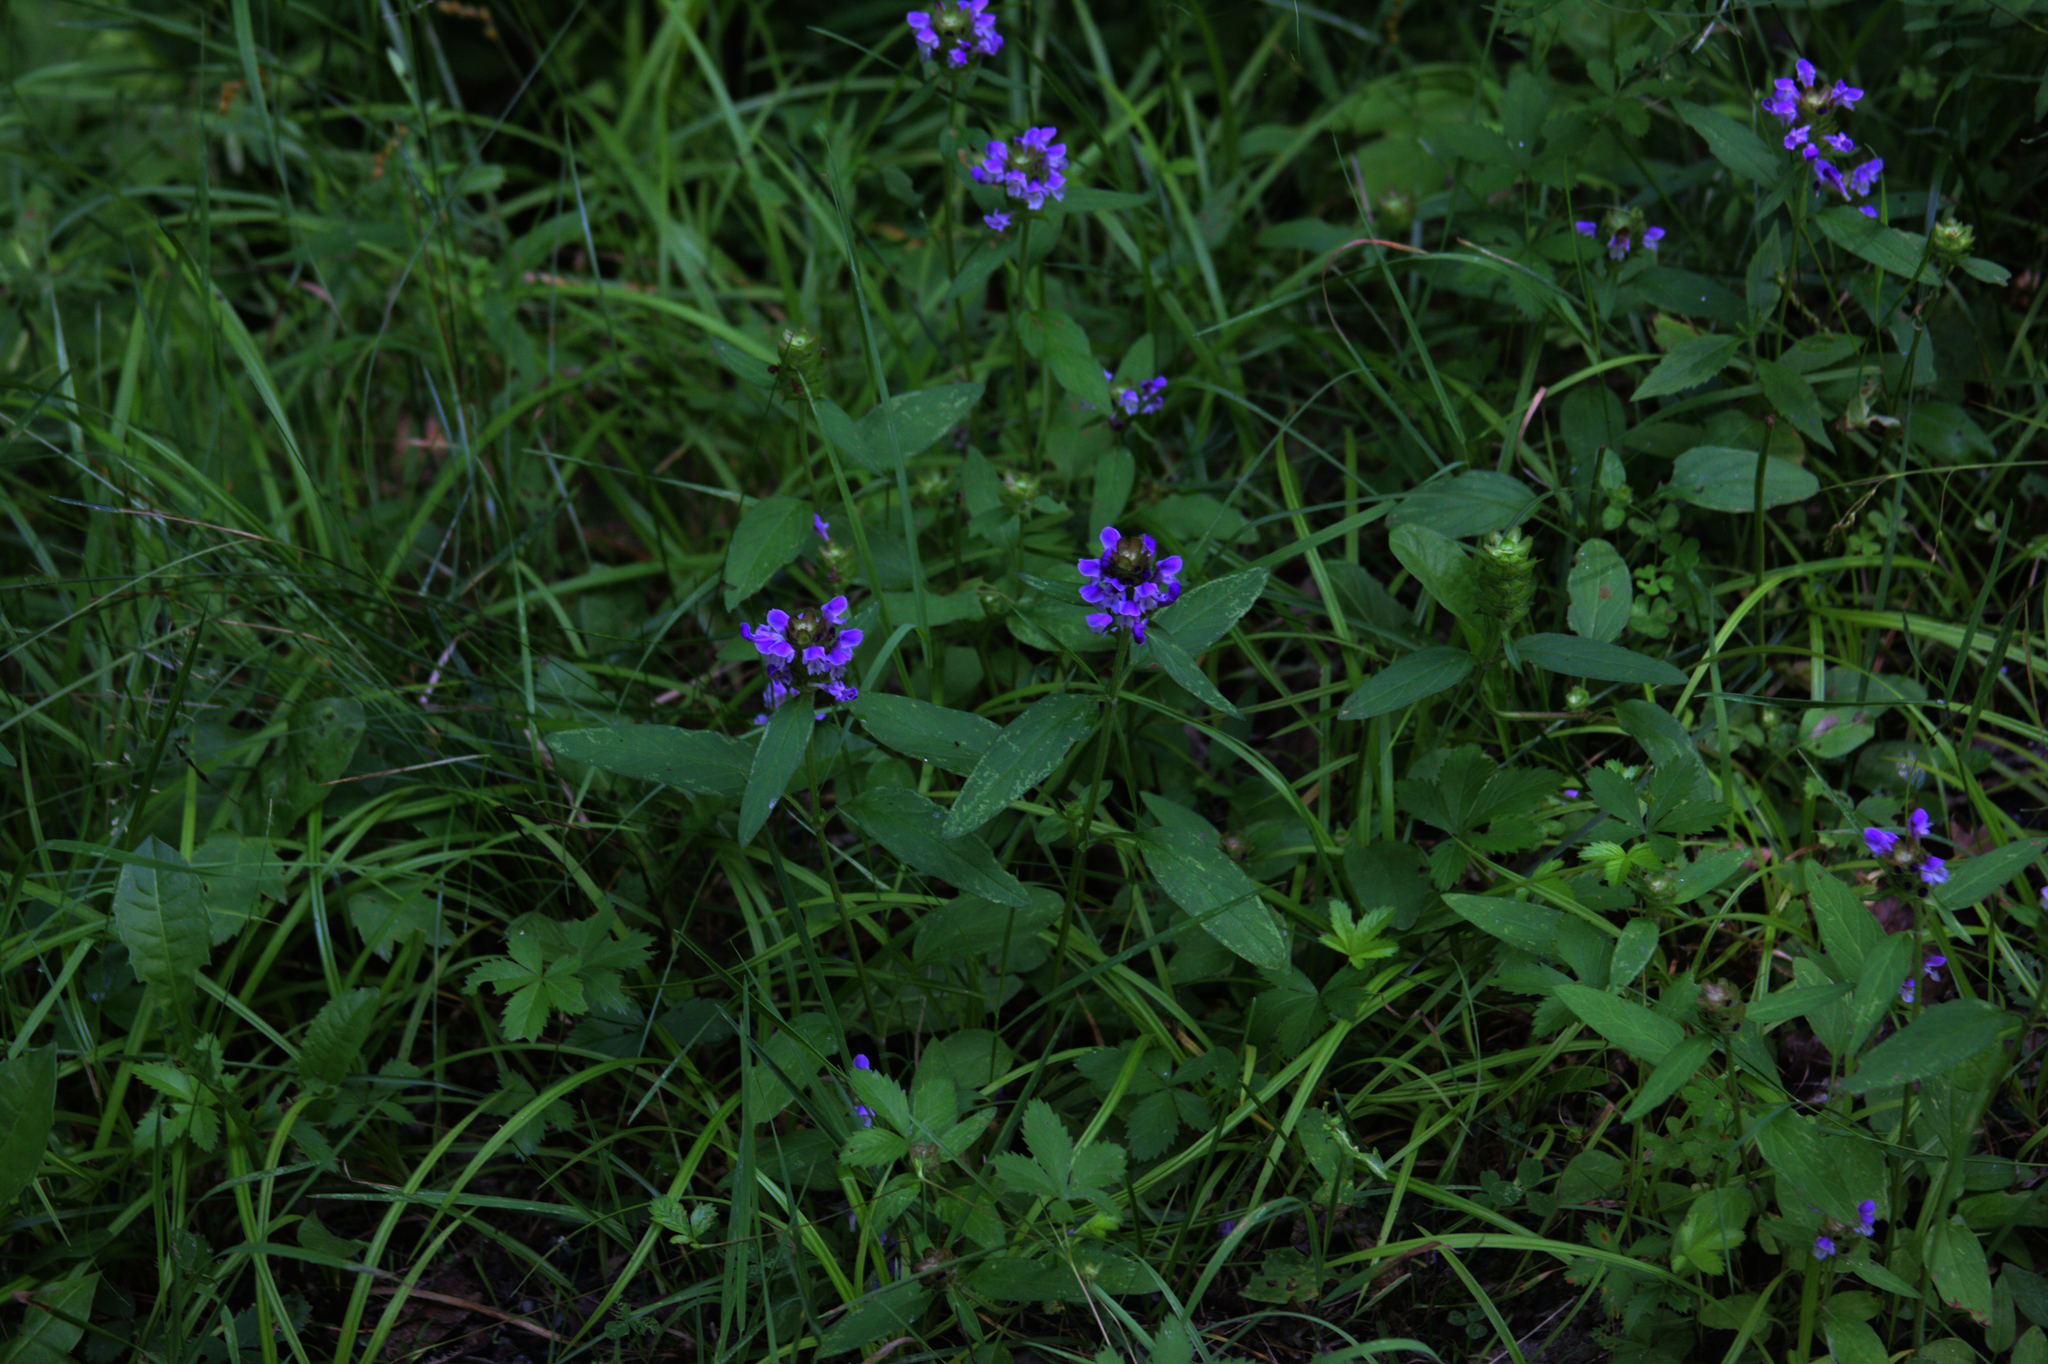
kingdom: Plantae
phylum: Tracheophyta
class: Magnoliopsida
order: Lamiales
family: Lamiaceae
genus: Prunella
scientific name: Prunella vulgaris
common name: Heal-all
